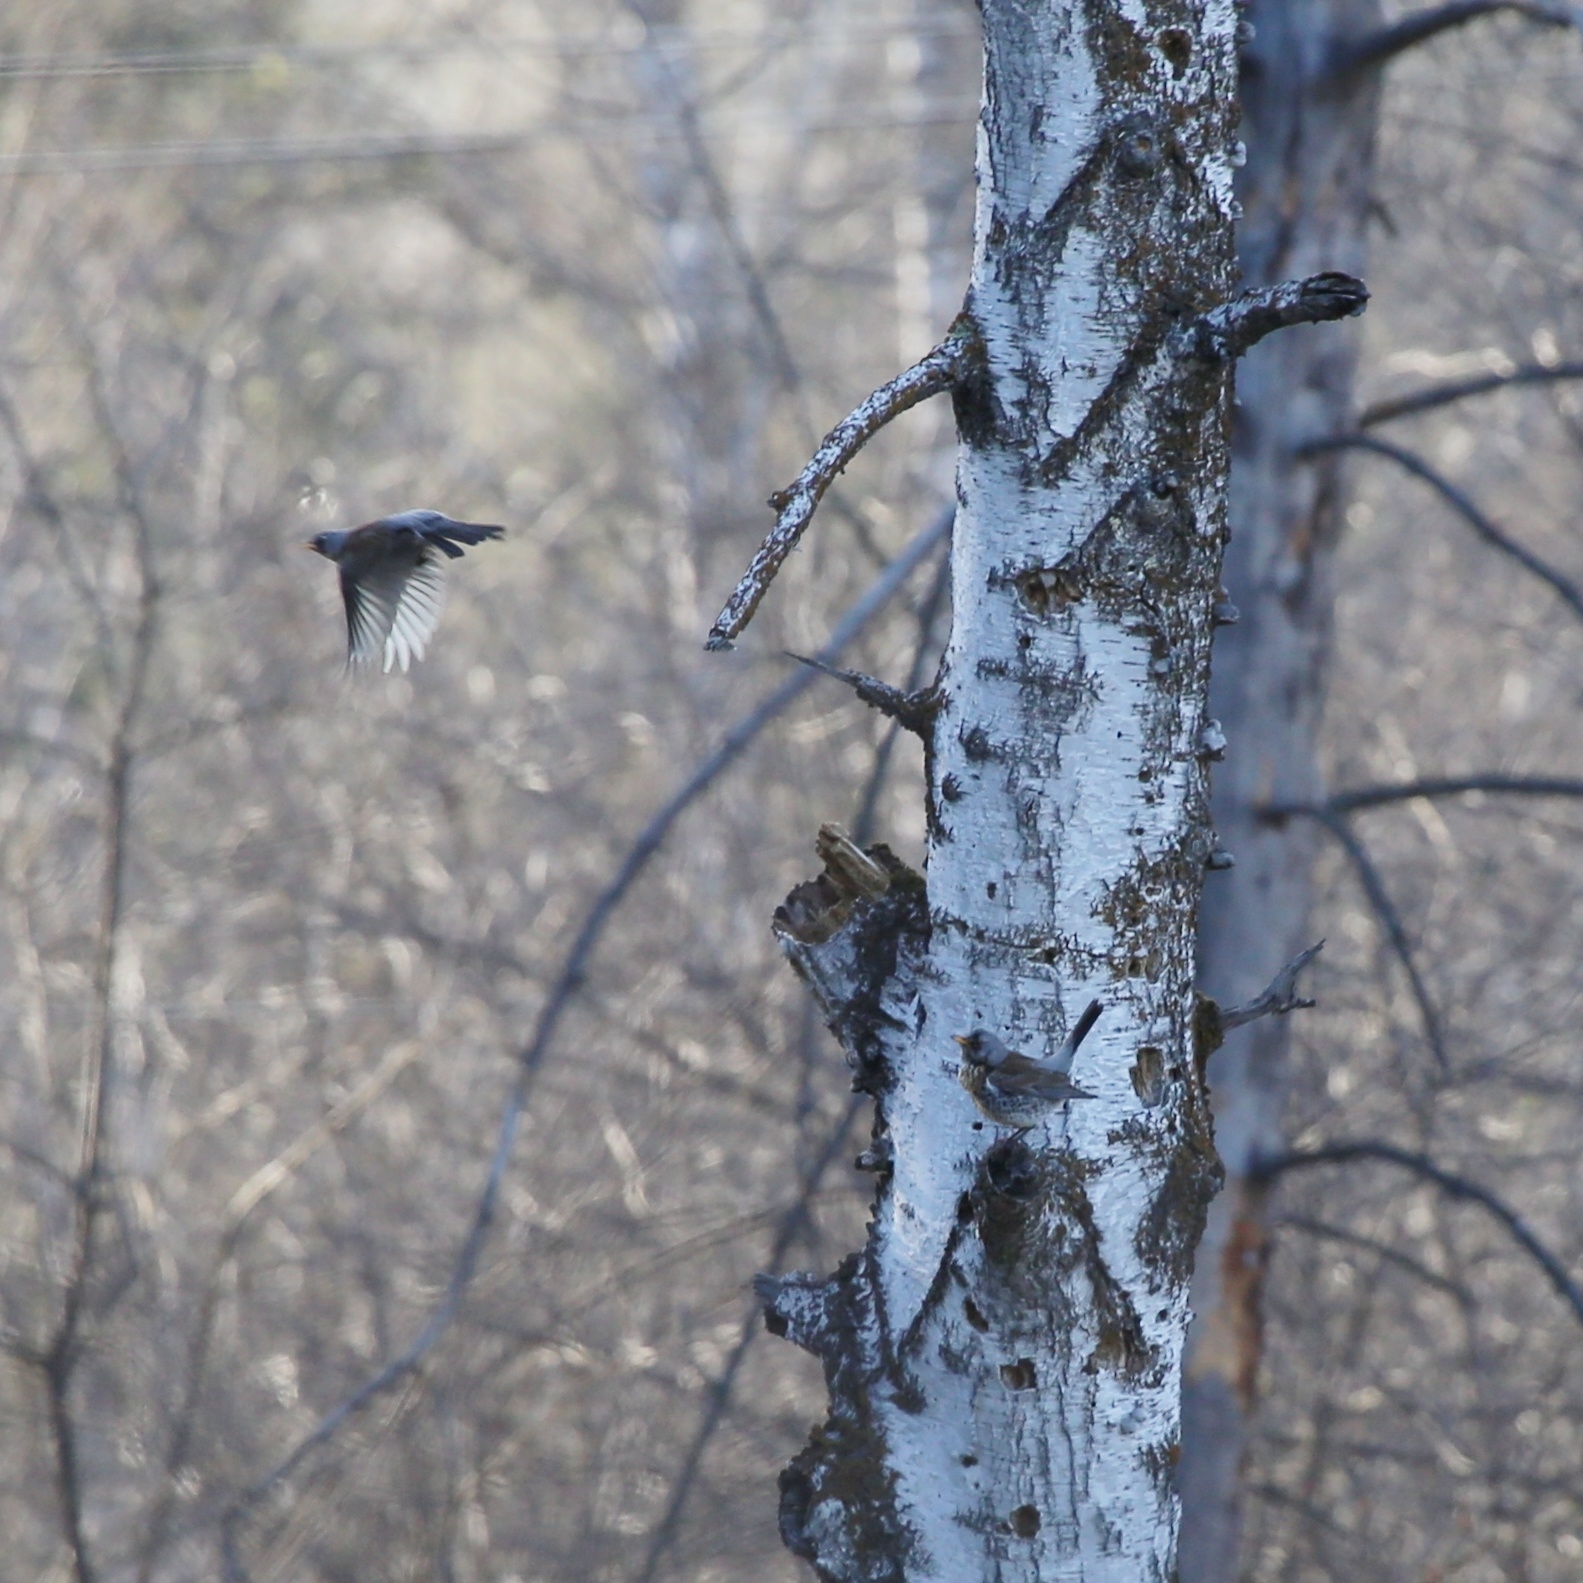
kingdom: Animalia
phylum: Chordata
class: Aves
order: Passeriformes
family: Turdidae
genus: Turdus
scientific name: Turdus pilaris
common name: Fieldfare
